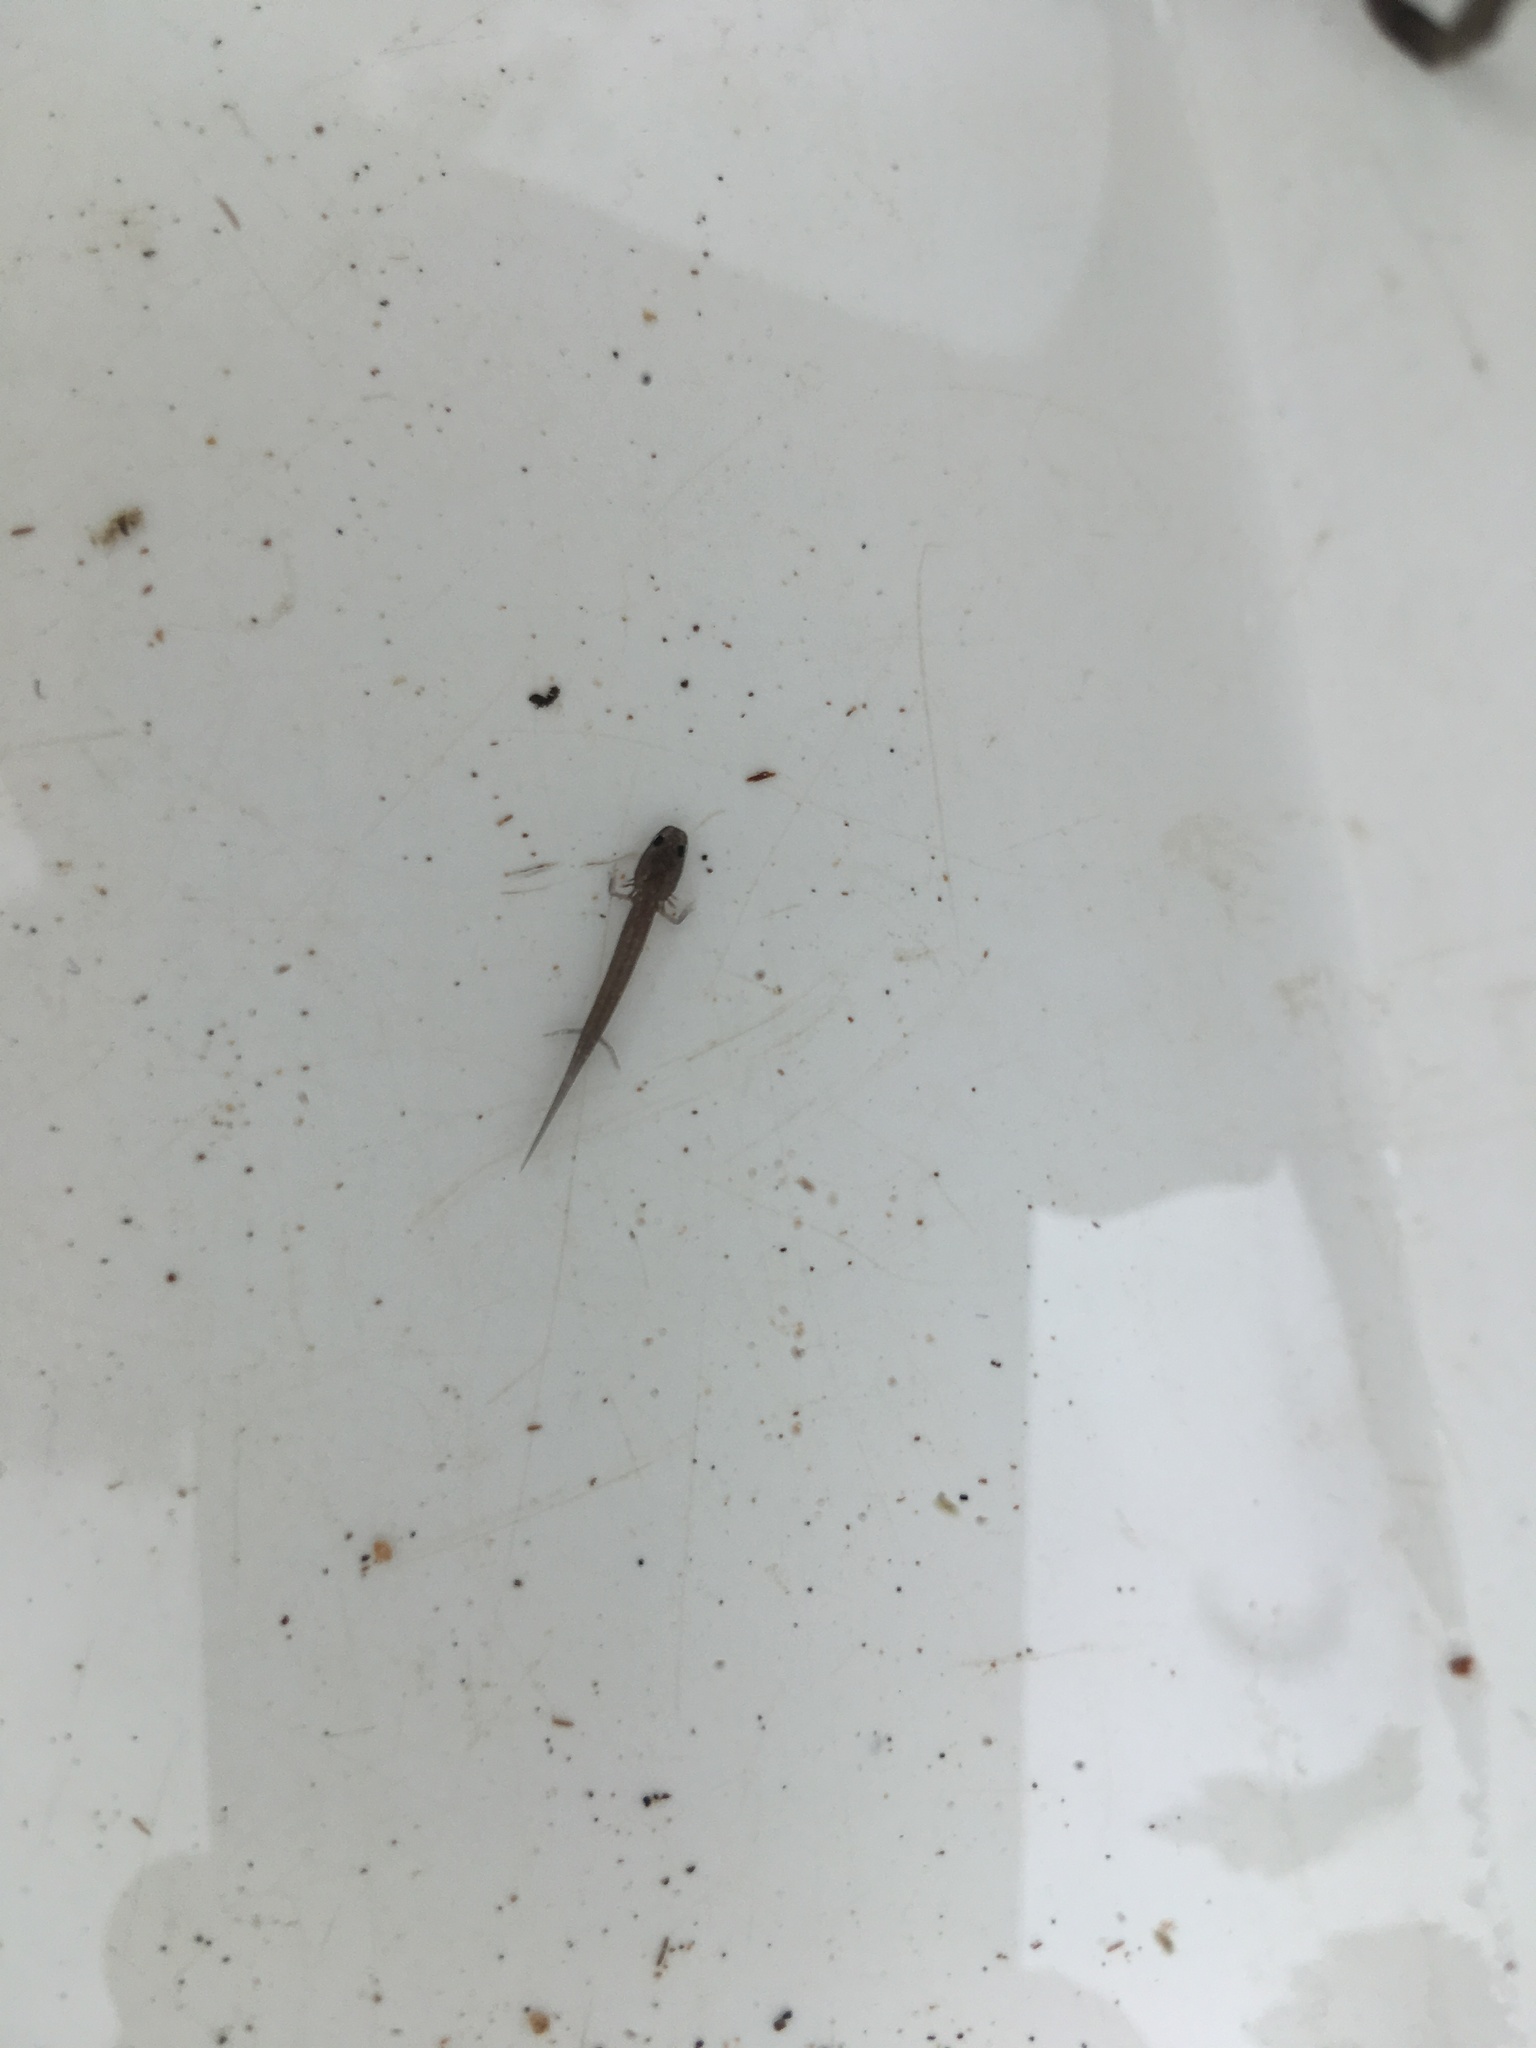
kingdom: Animalia
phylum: Chordata
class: Amphibia
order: Caudata
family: Plethodontidae
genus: Eurycea
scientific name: Eurycea chisholmensis
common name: Salado salamander
